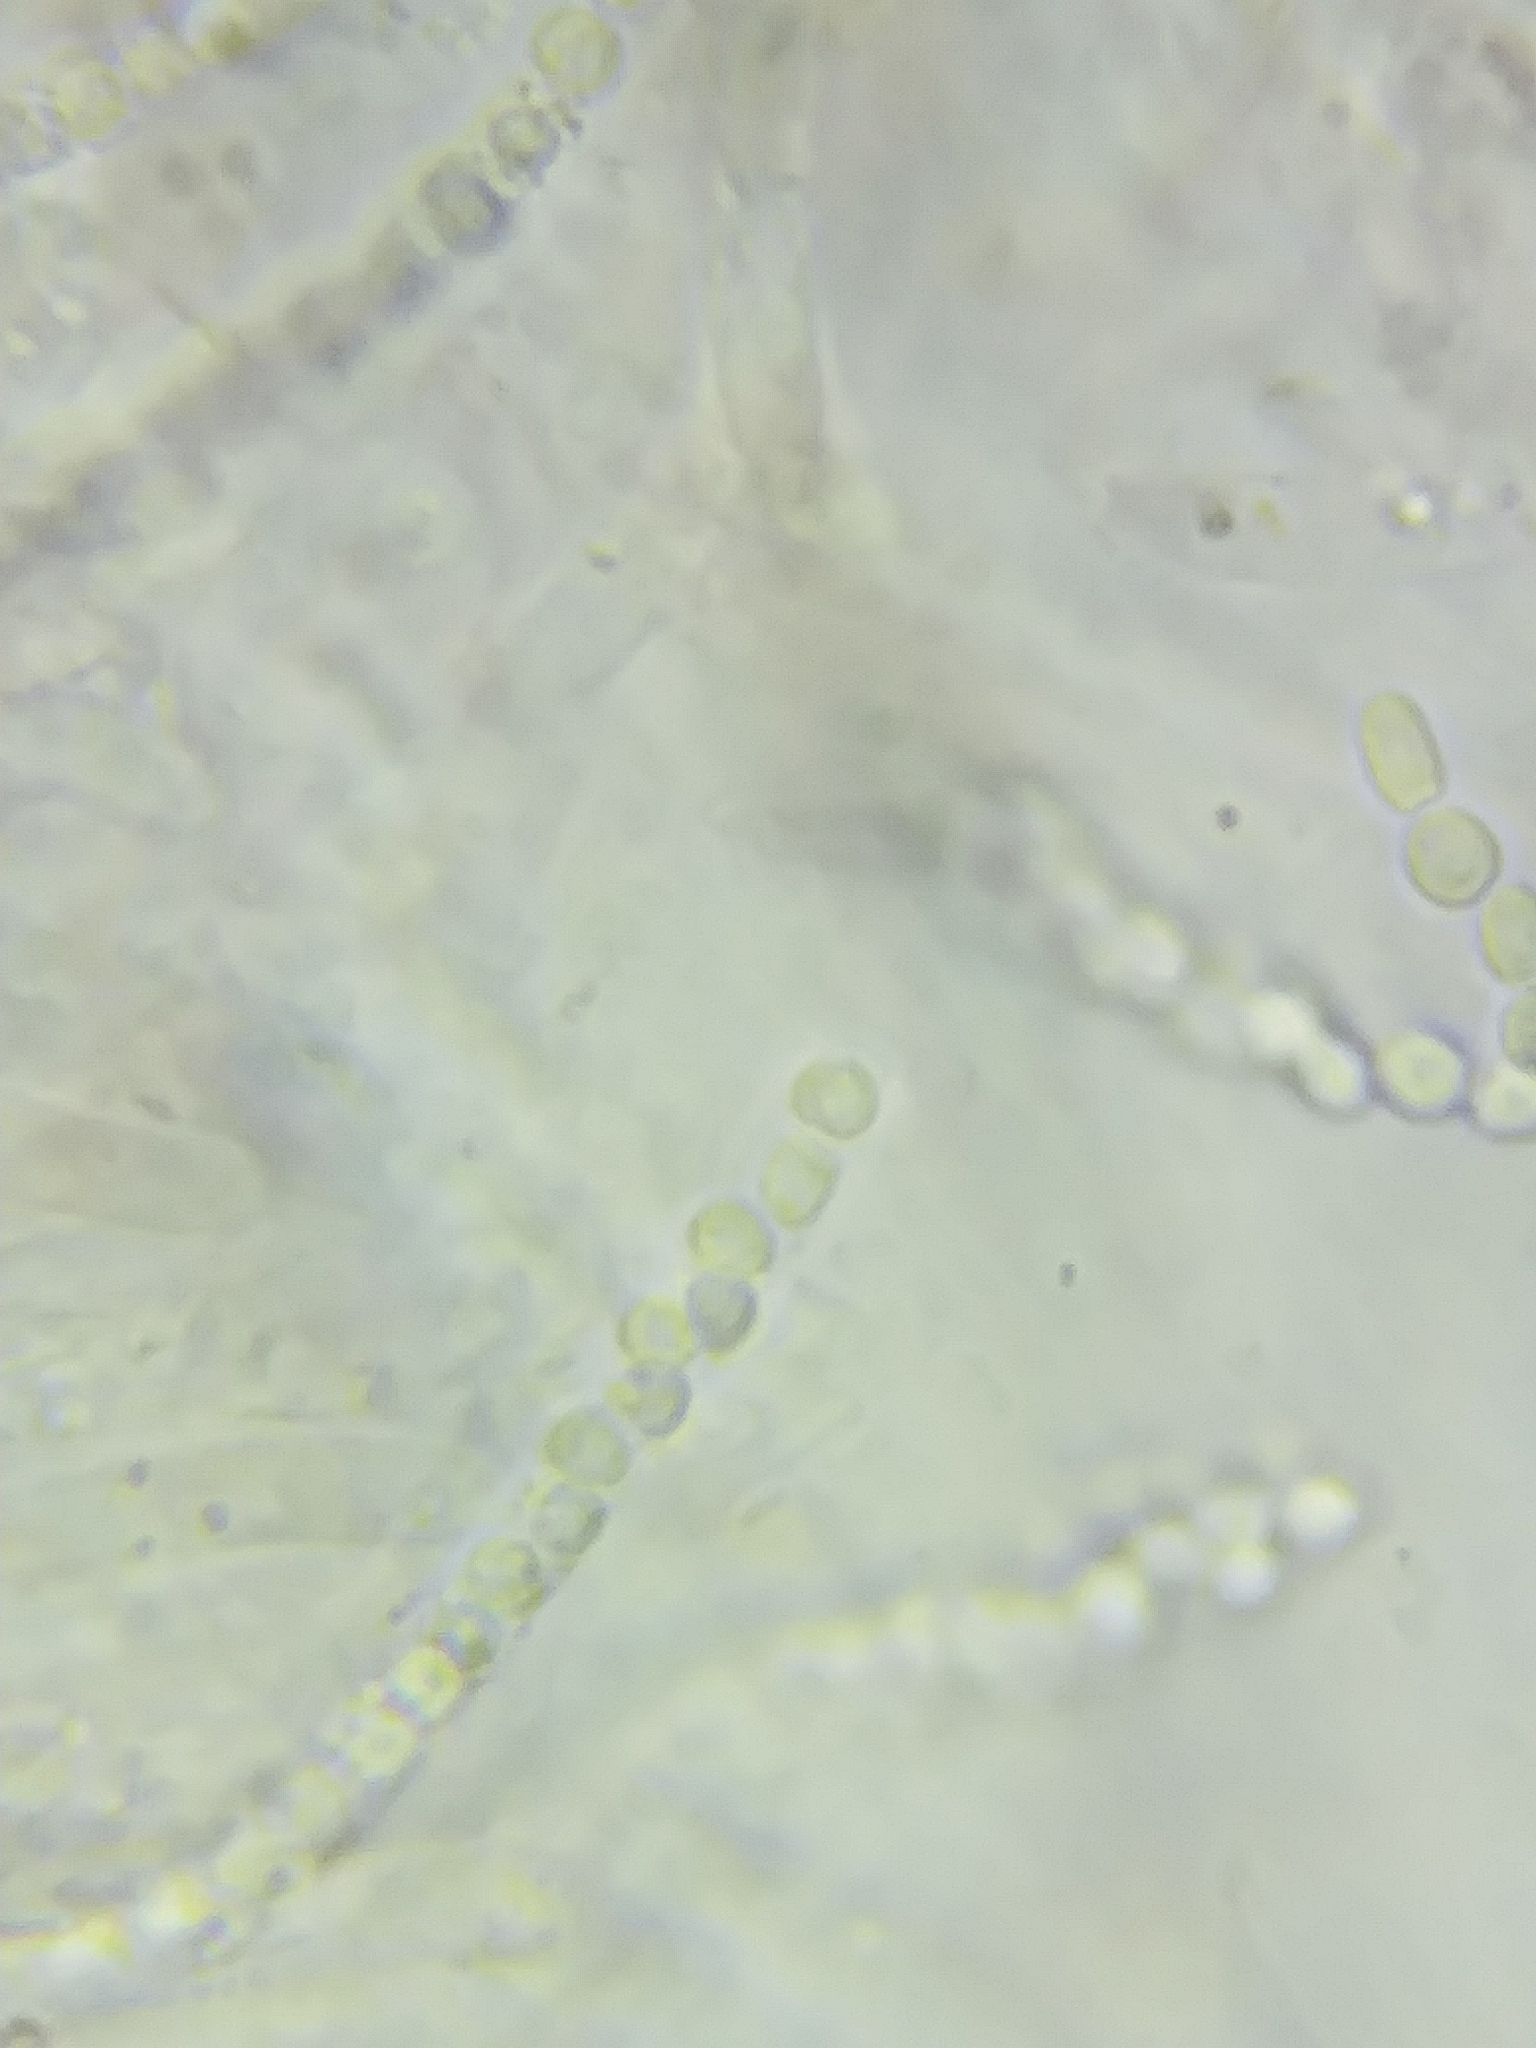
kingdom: Fungi
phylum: Ascomycota
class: Sordariomycetes
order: Hypocreales
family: Hypocreaceae
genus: Trichoderma
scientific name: Trichoderma leucopus
